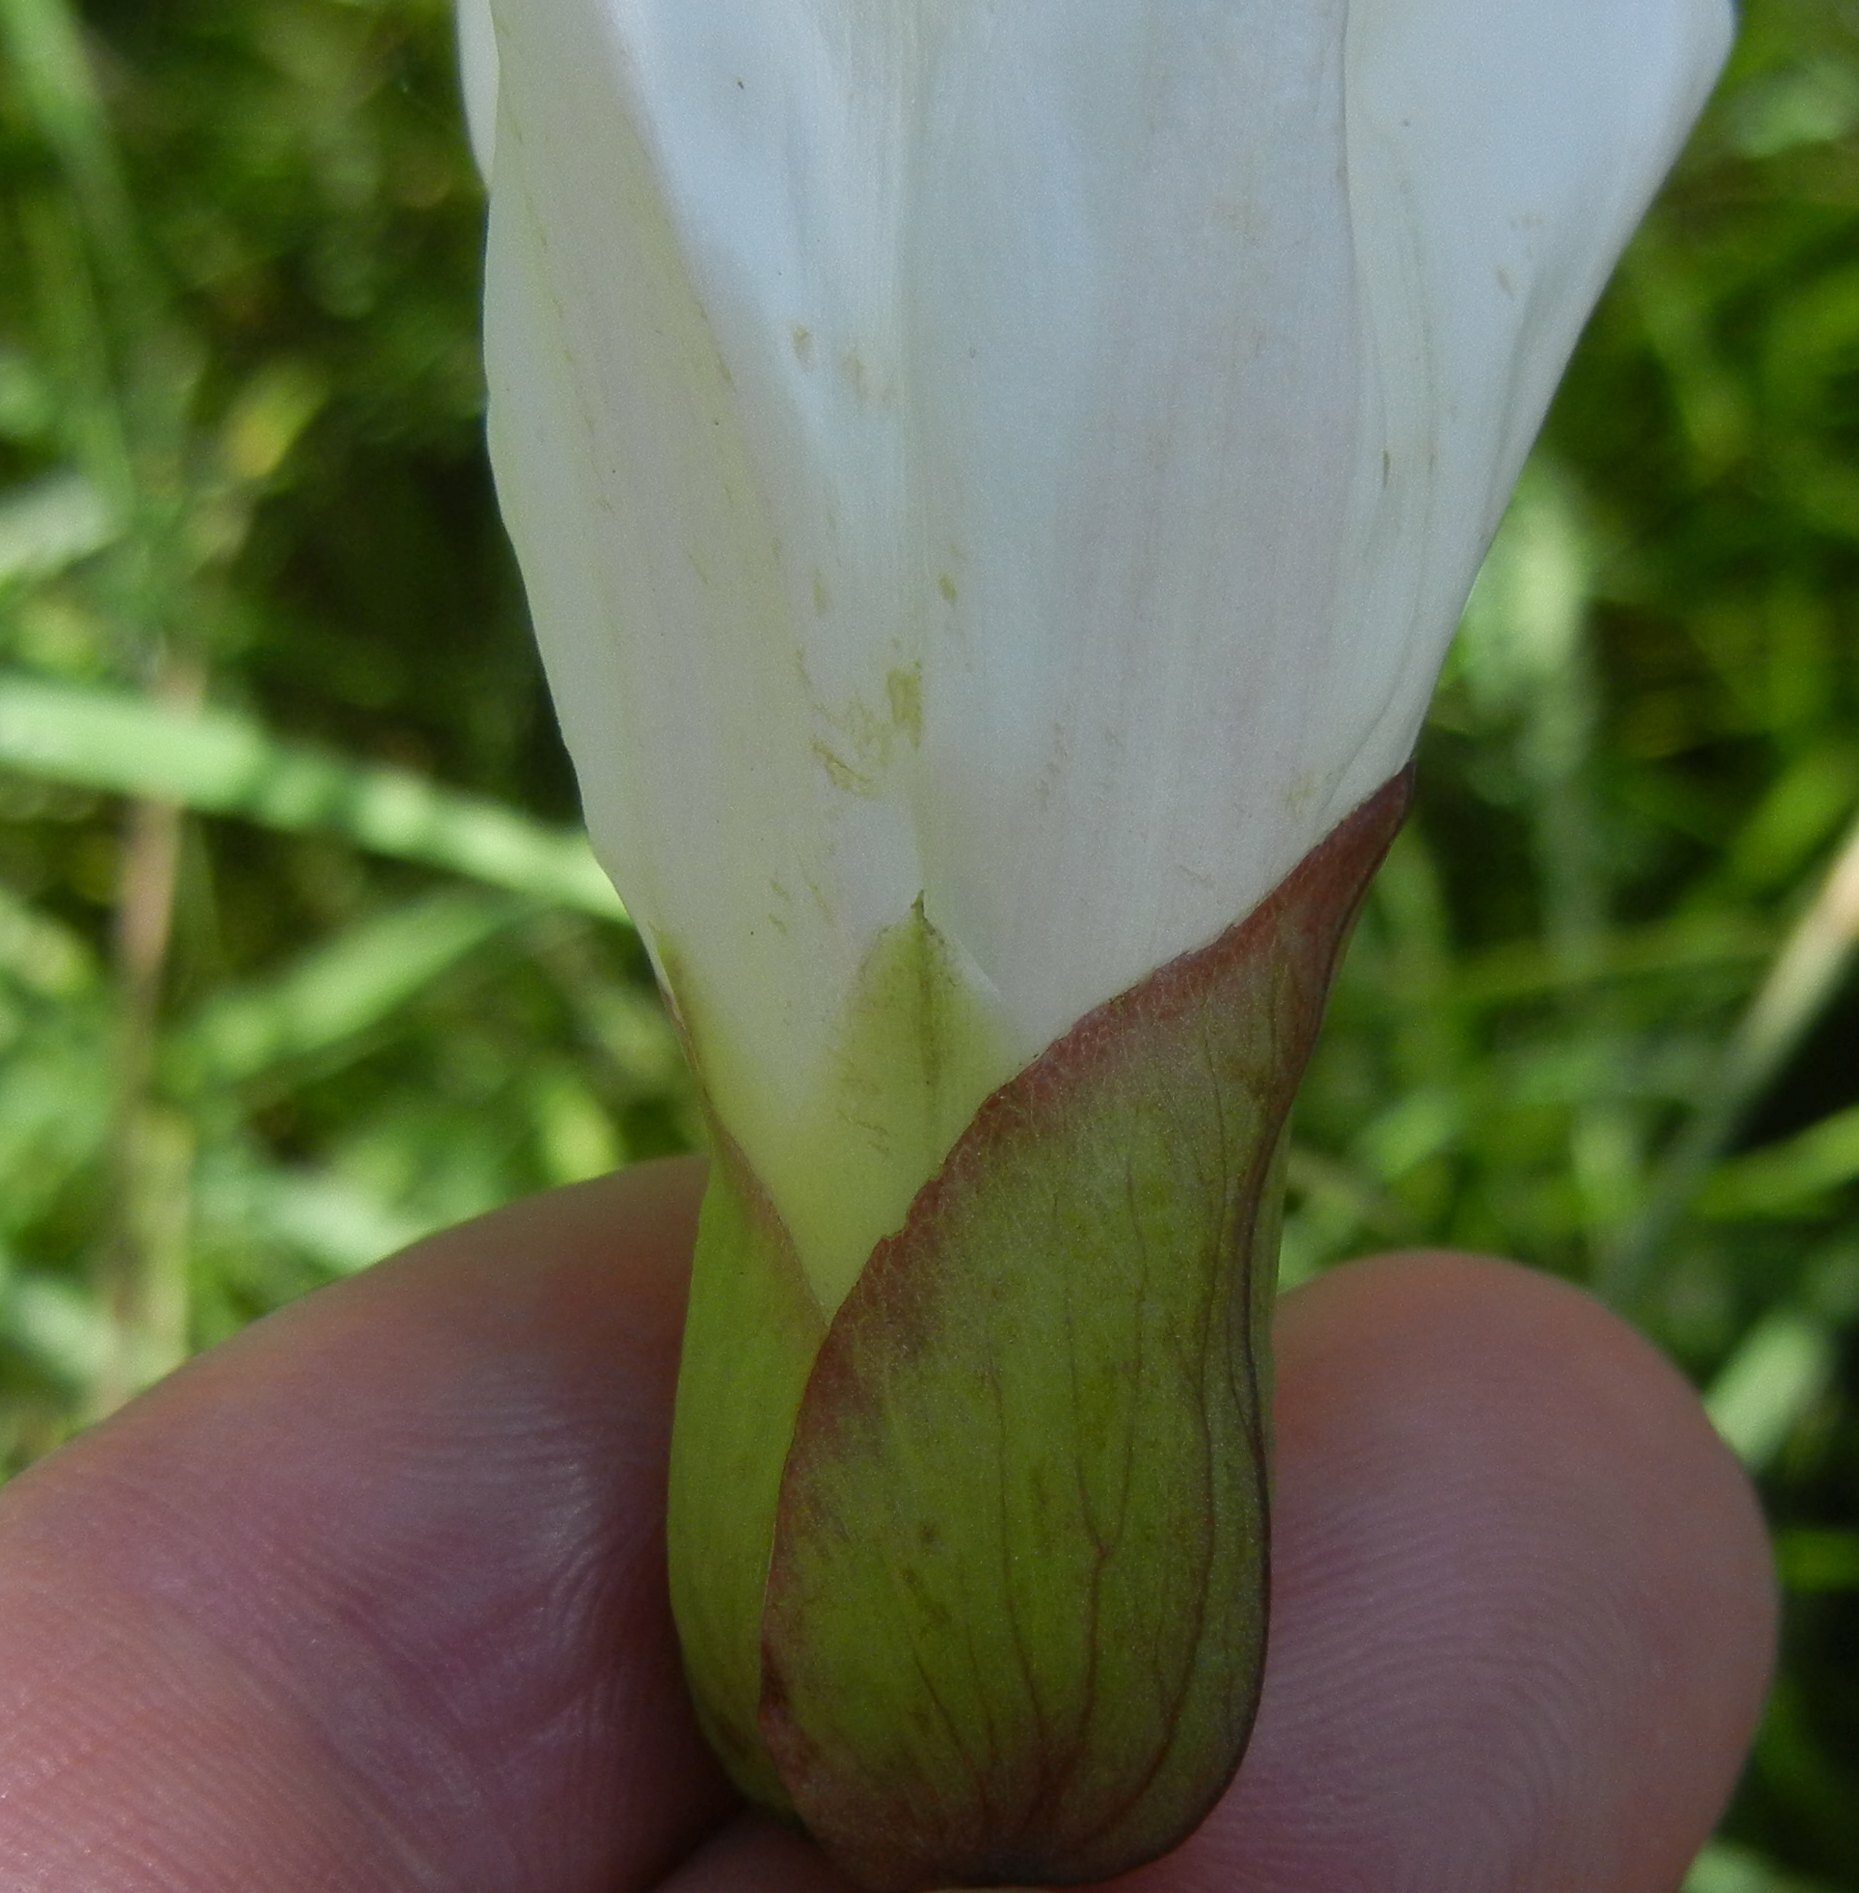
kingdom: Plantae
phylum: Tracheophyta
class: Magnoliopsida
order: Solanales
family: Convolvulaceae
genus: Calystegia
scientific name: Calystegia silvatica
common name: Large bindweed
